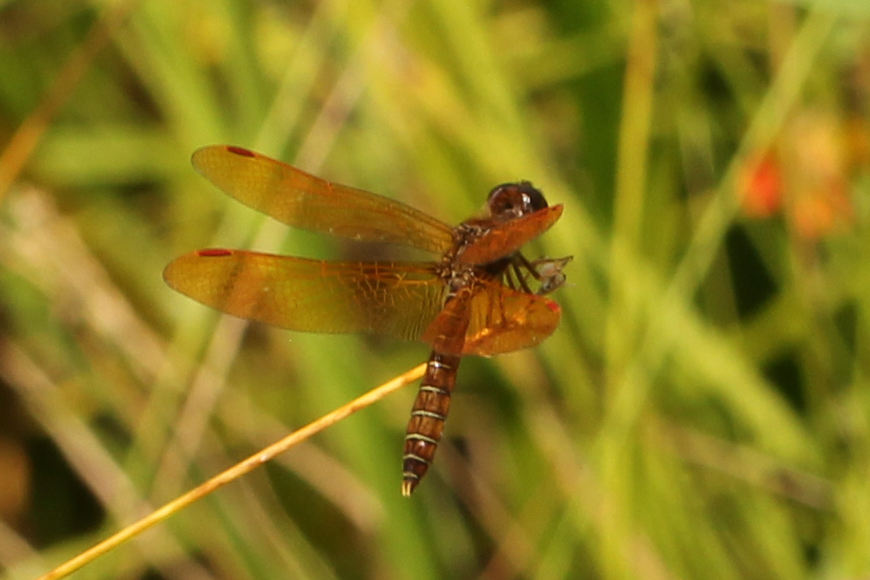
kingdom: Animalia
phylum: Arthropoda
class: Insecta
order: Odonata
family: Libellulidae
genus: Perithemis
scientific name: Perithemis tenera
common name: Eastern amberwing
